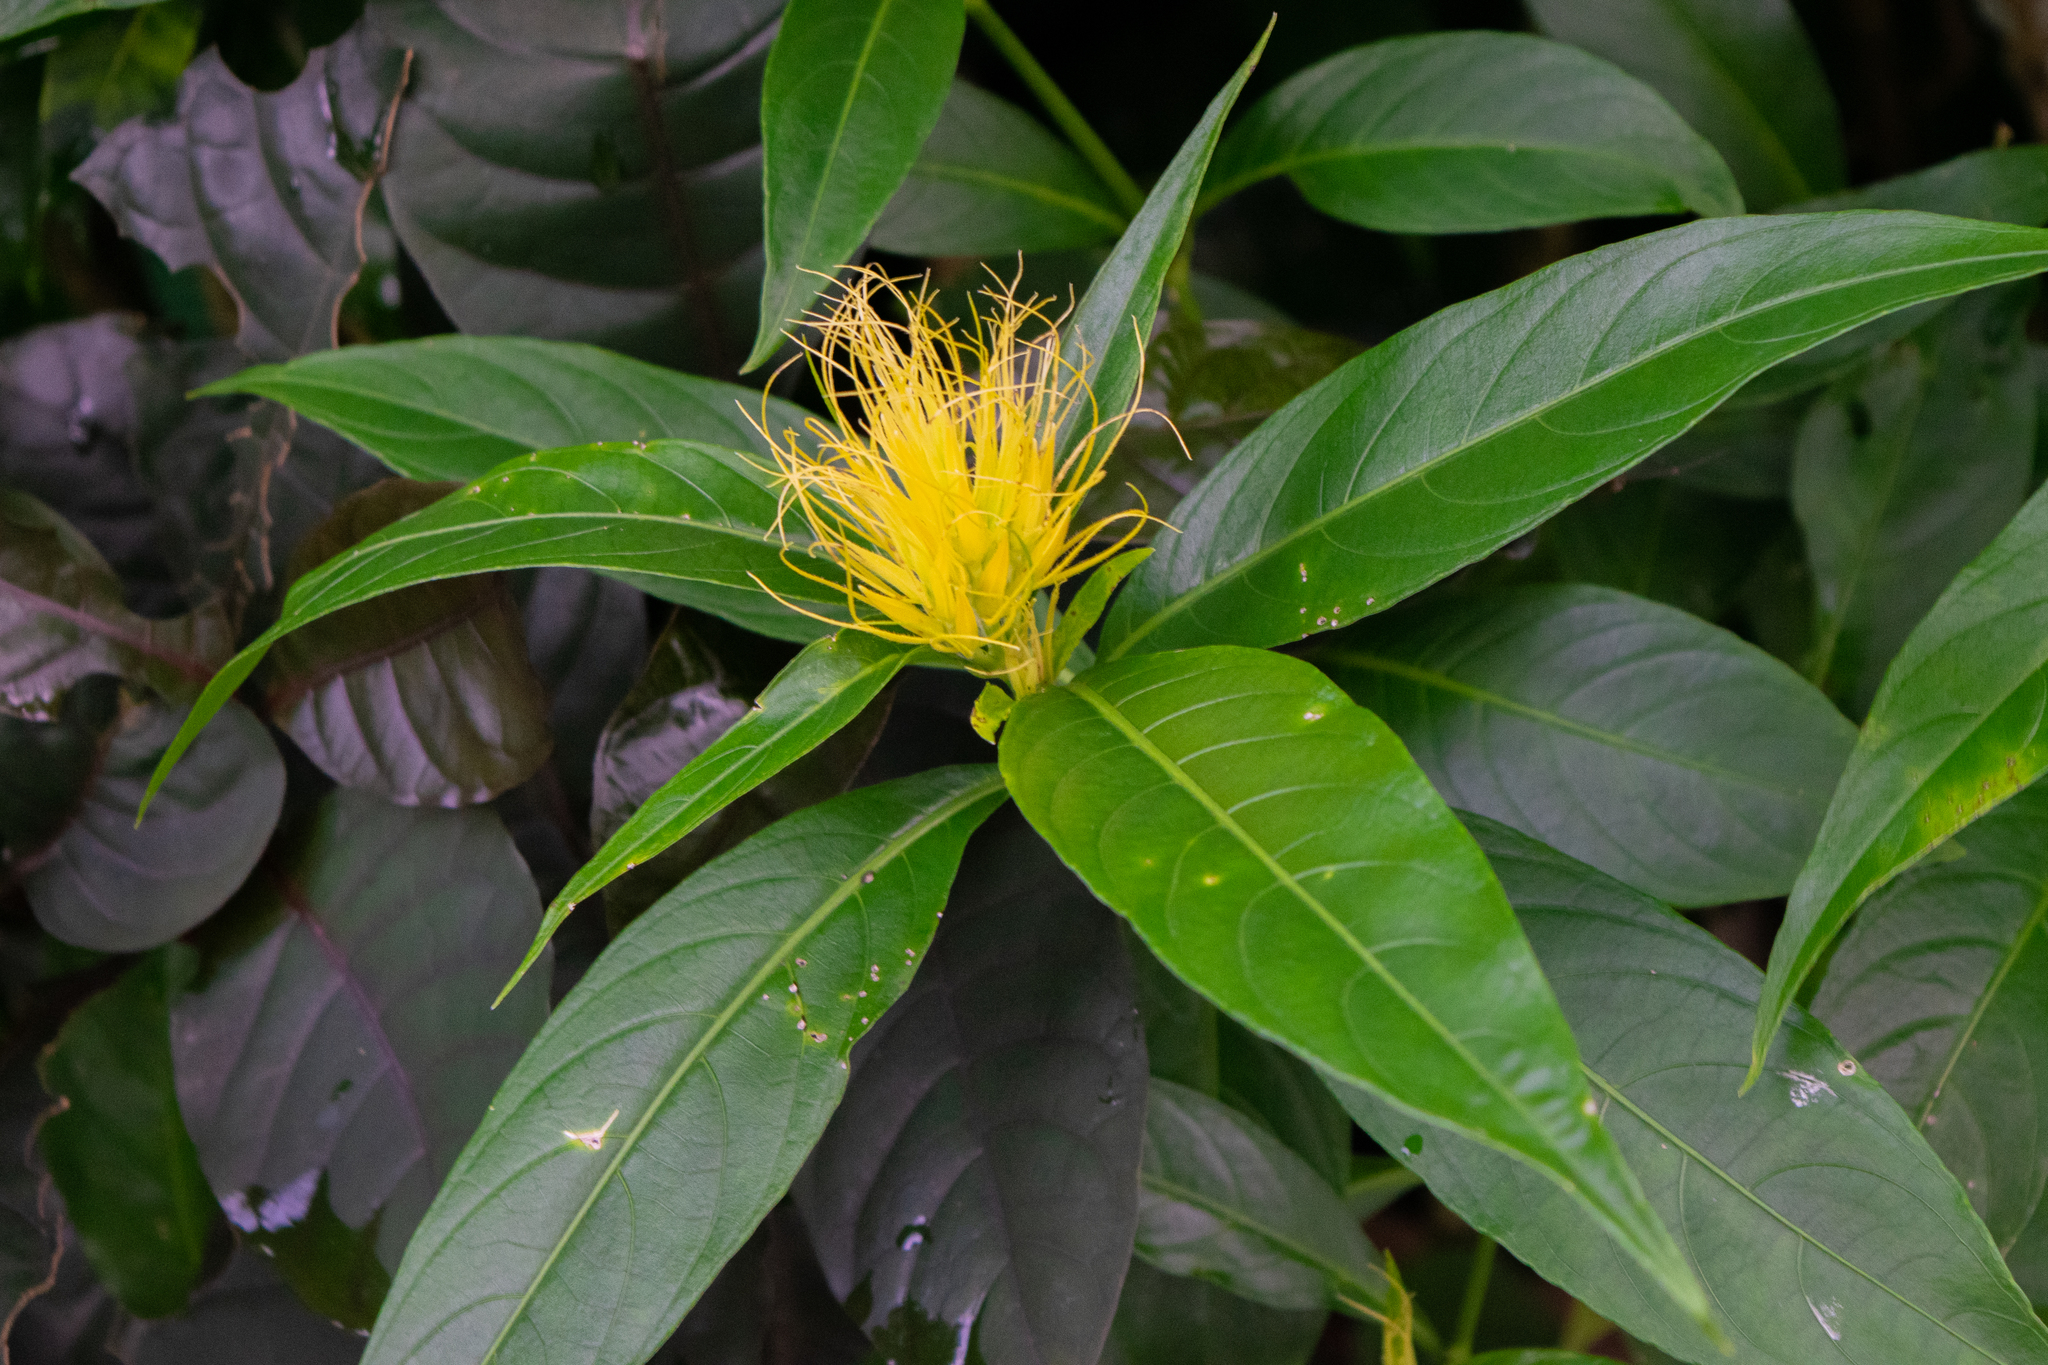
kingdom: Plantae
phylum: Tracheophyta
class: Magnoliopsida
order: Lamiales
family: Acanthaceae
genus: Justicia
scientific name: Justicia croceochlamys
